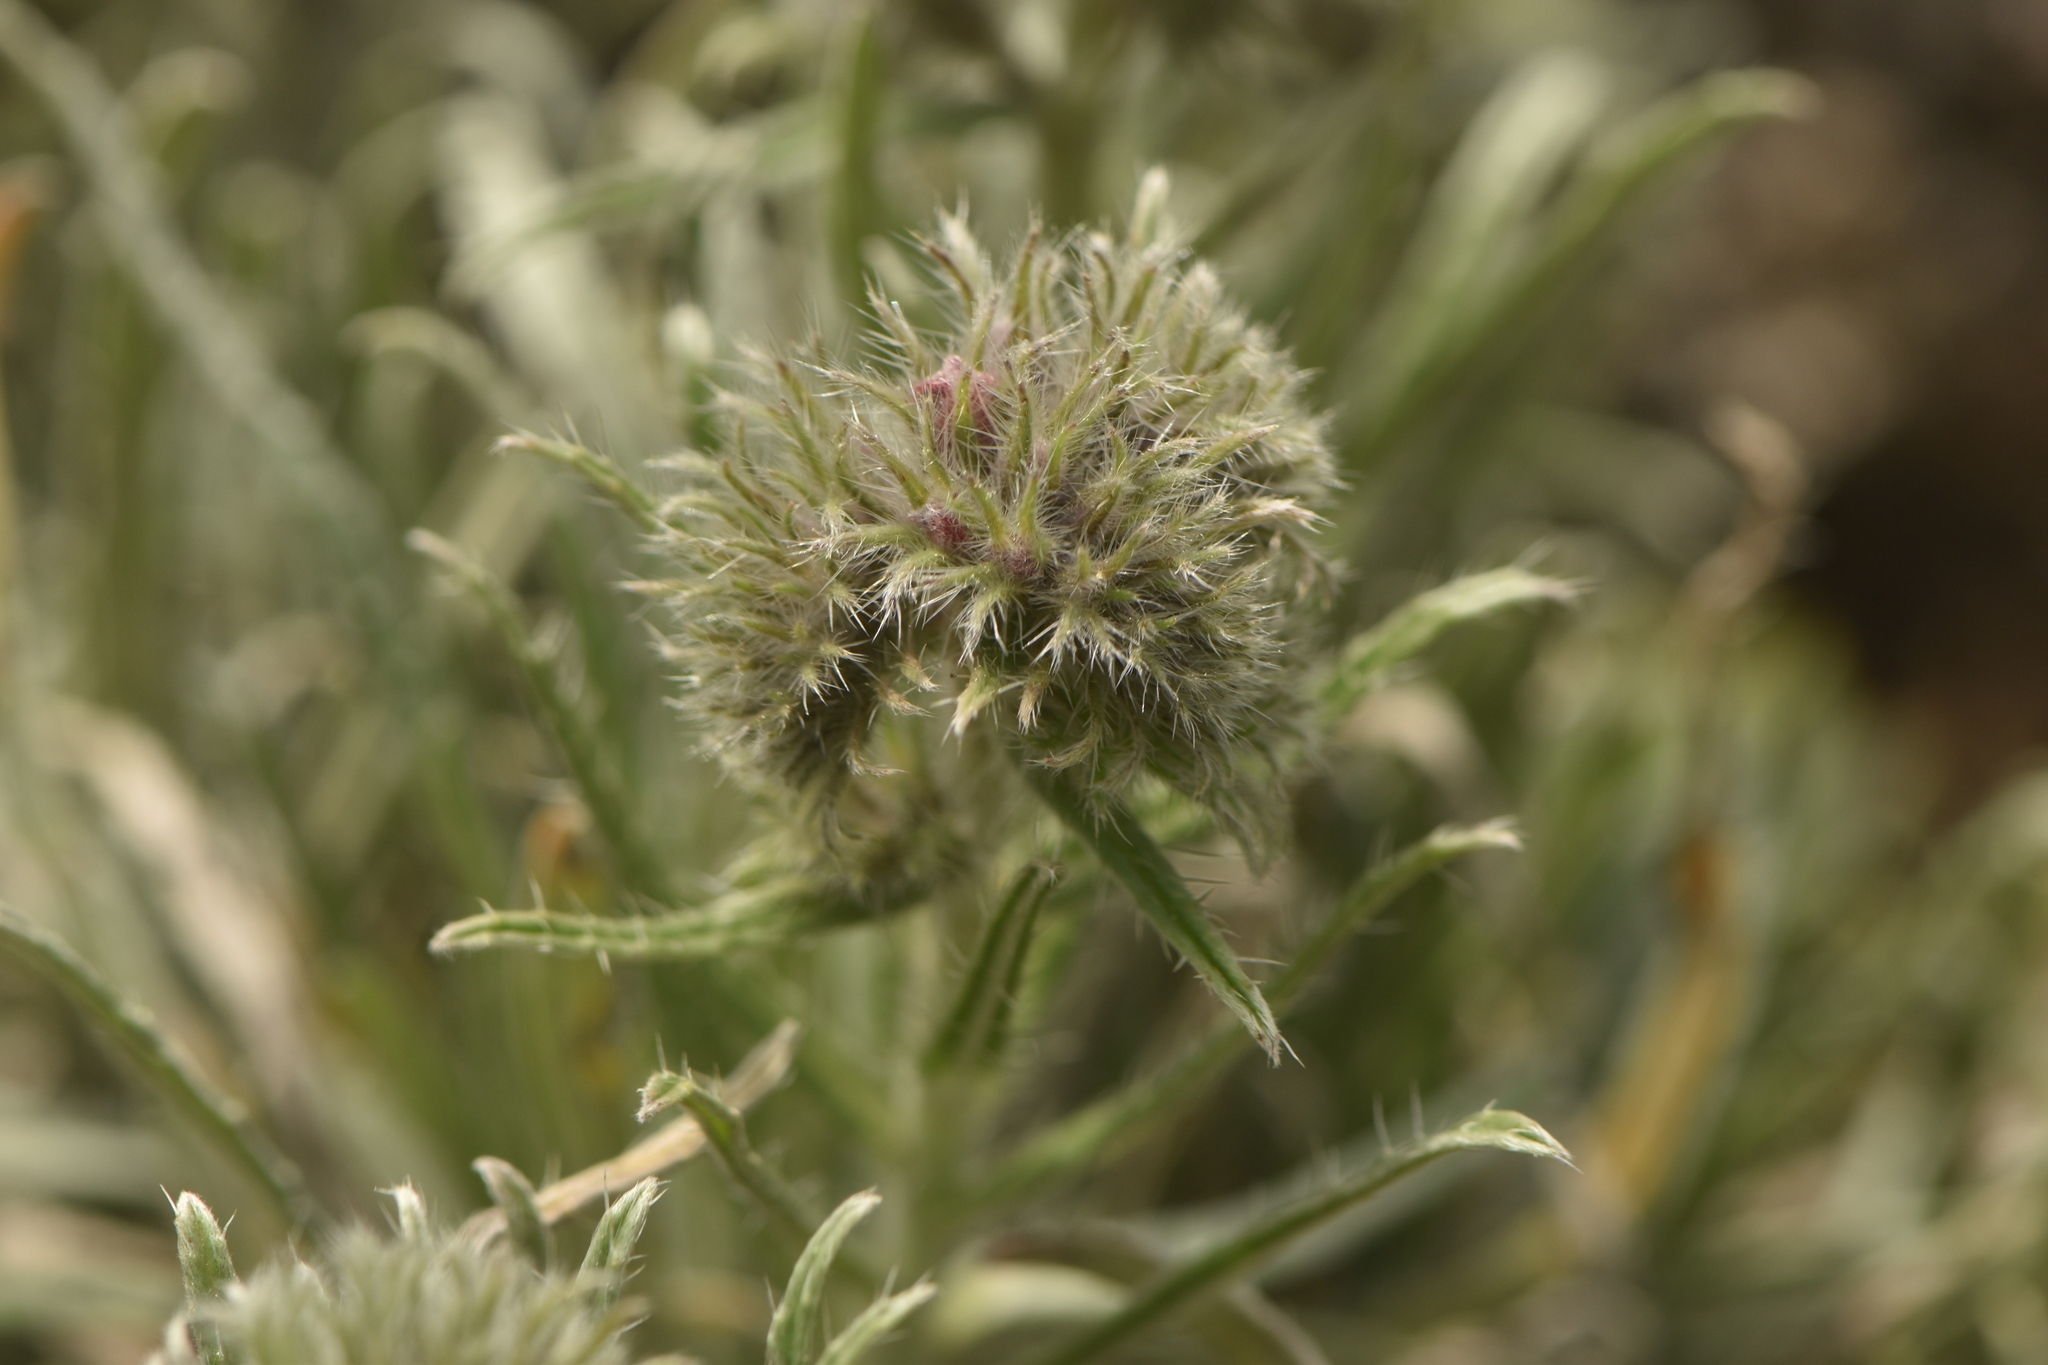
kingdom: Plantae
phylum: Tracheophyta
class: Magnoliopsida
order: Boraginales
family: Boraginaceae
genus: Echium
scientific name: Echium albicans
